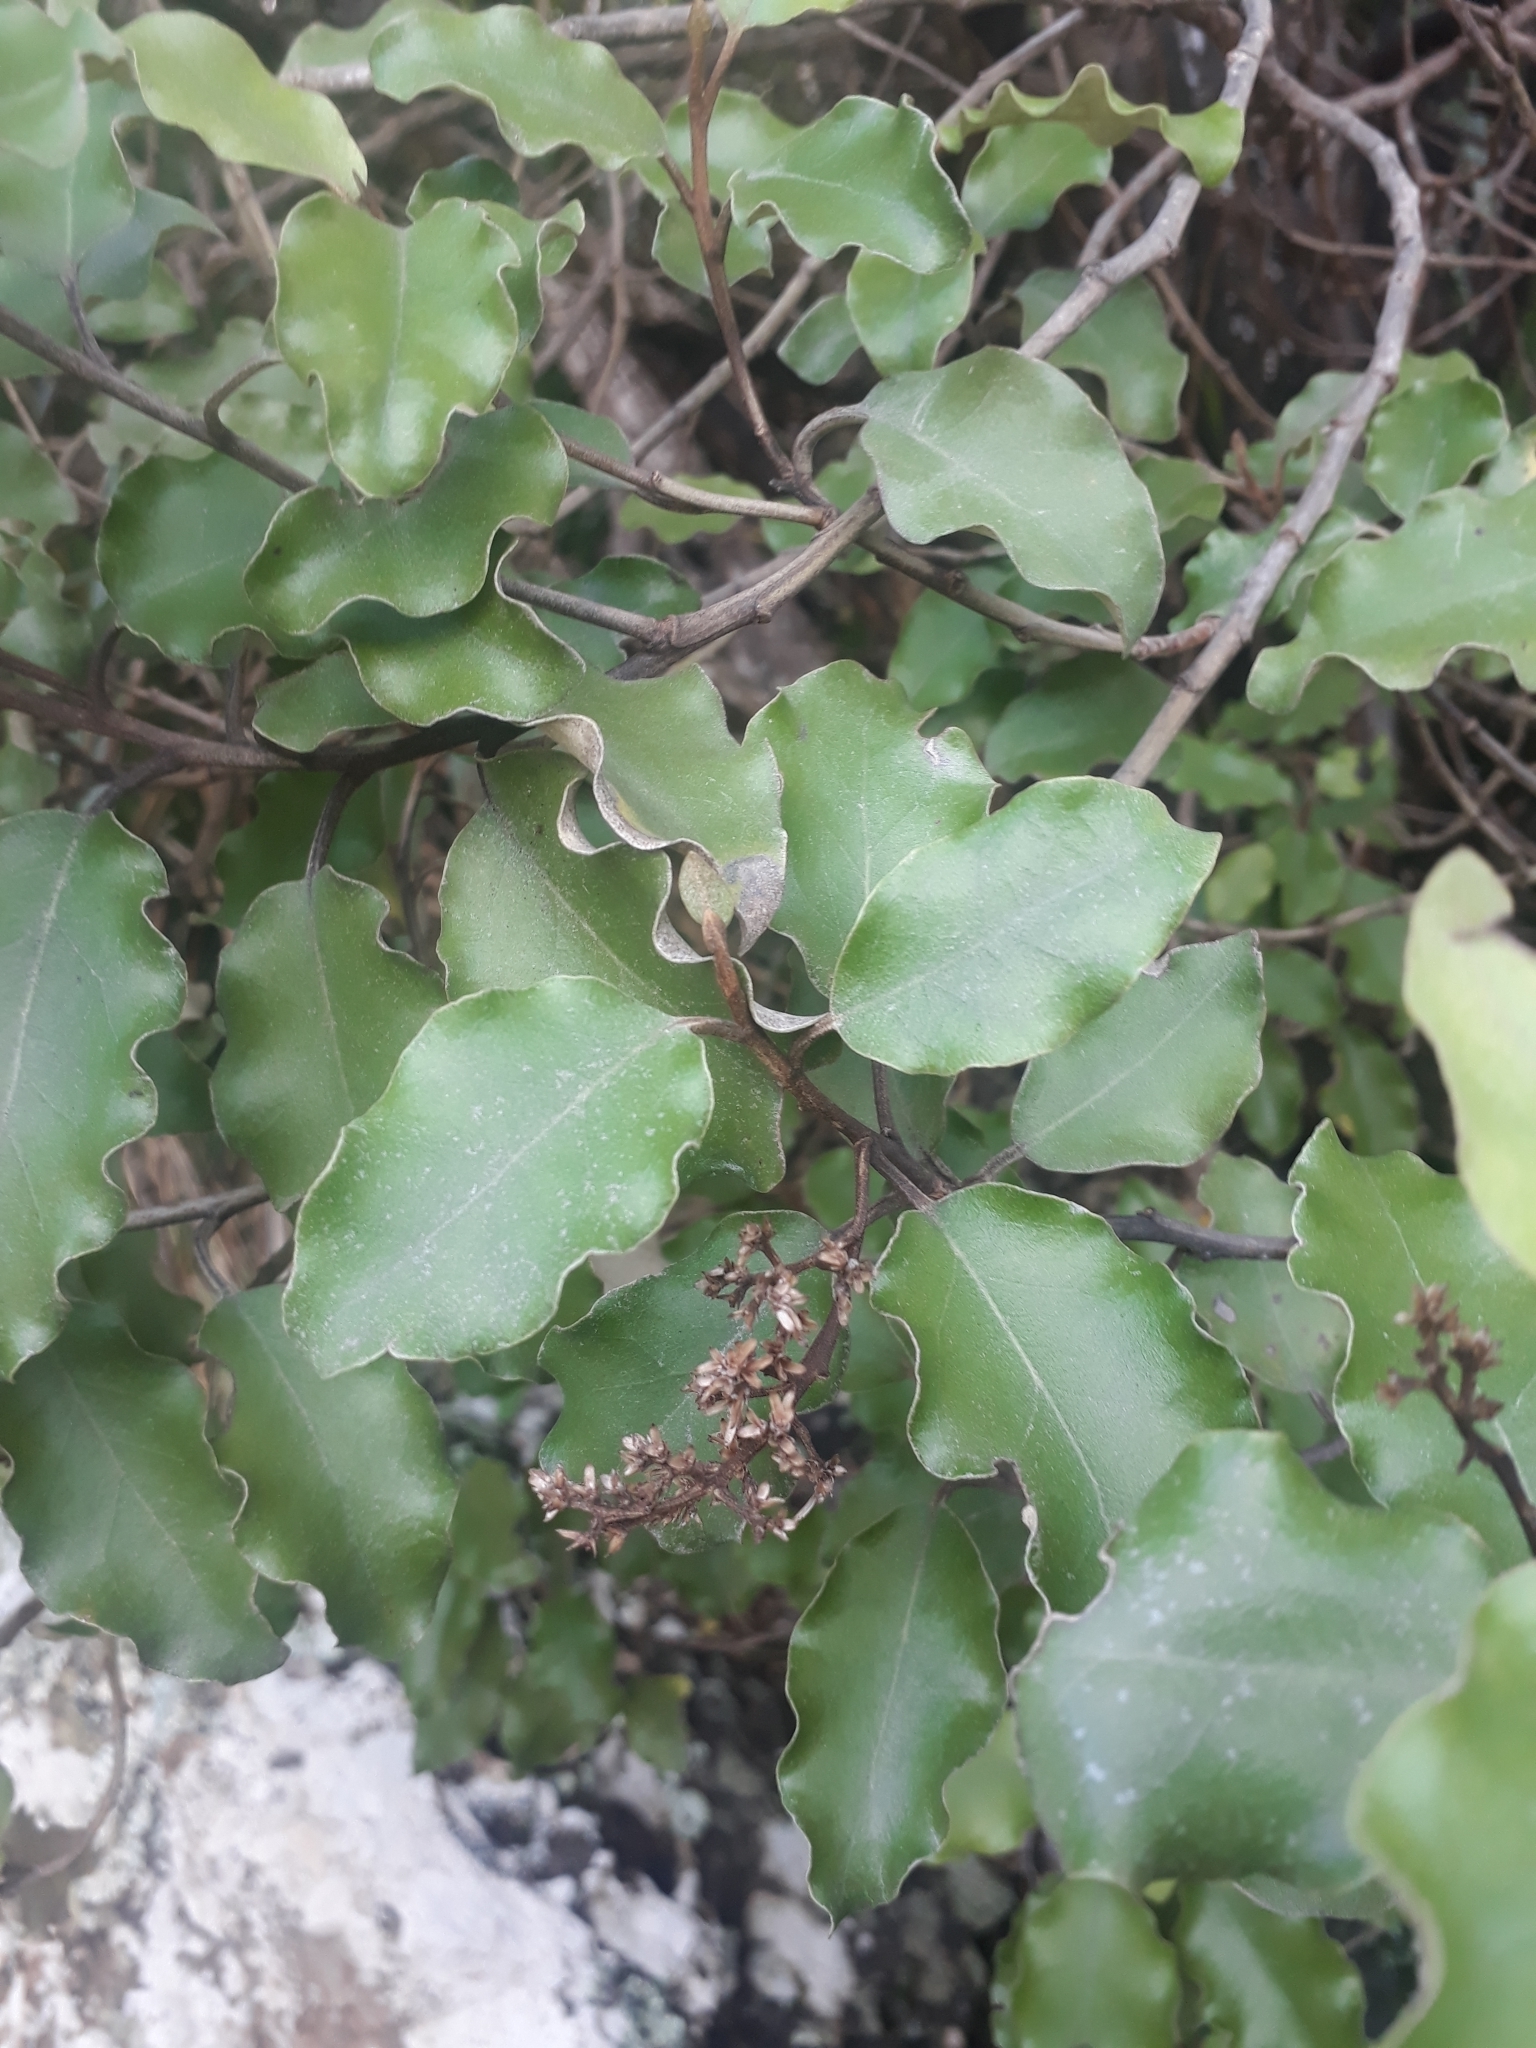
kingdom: Plantae
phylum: Tracheophyta
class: Magnoliopsida
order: Asterales
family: Asteraceae
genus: Olearia
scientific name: Olearia paniculata
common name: Akiraho
